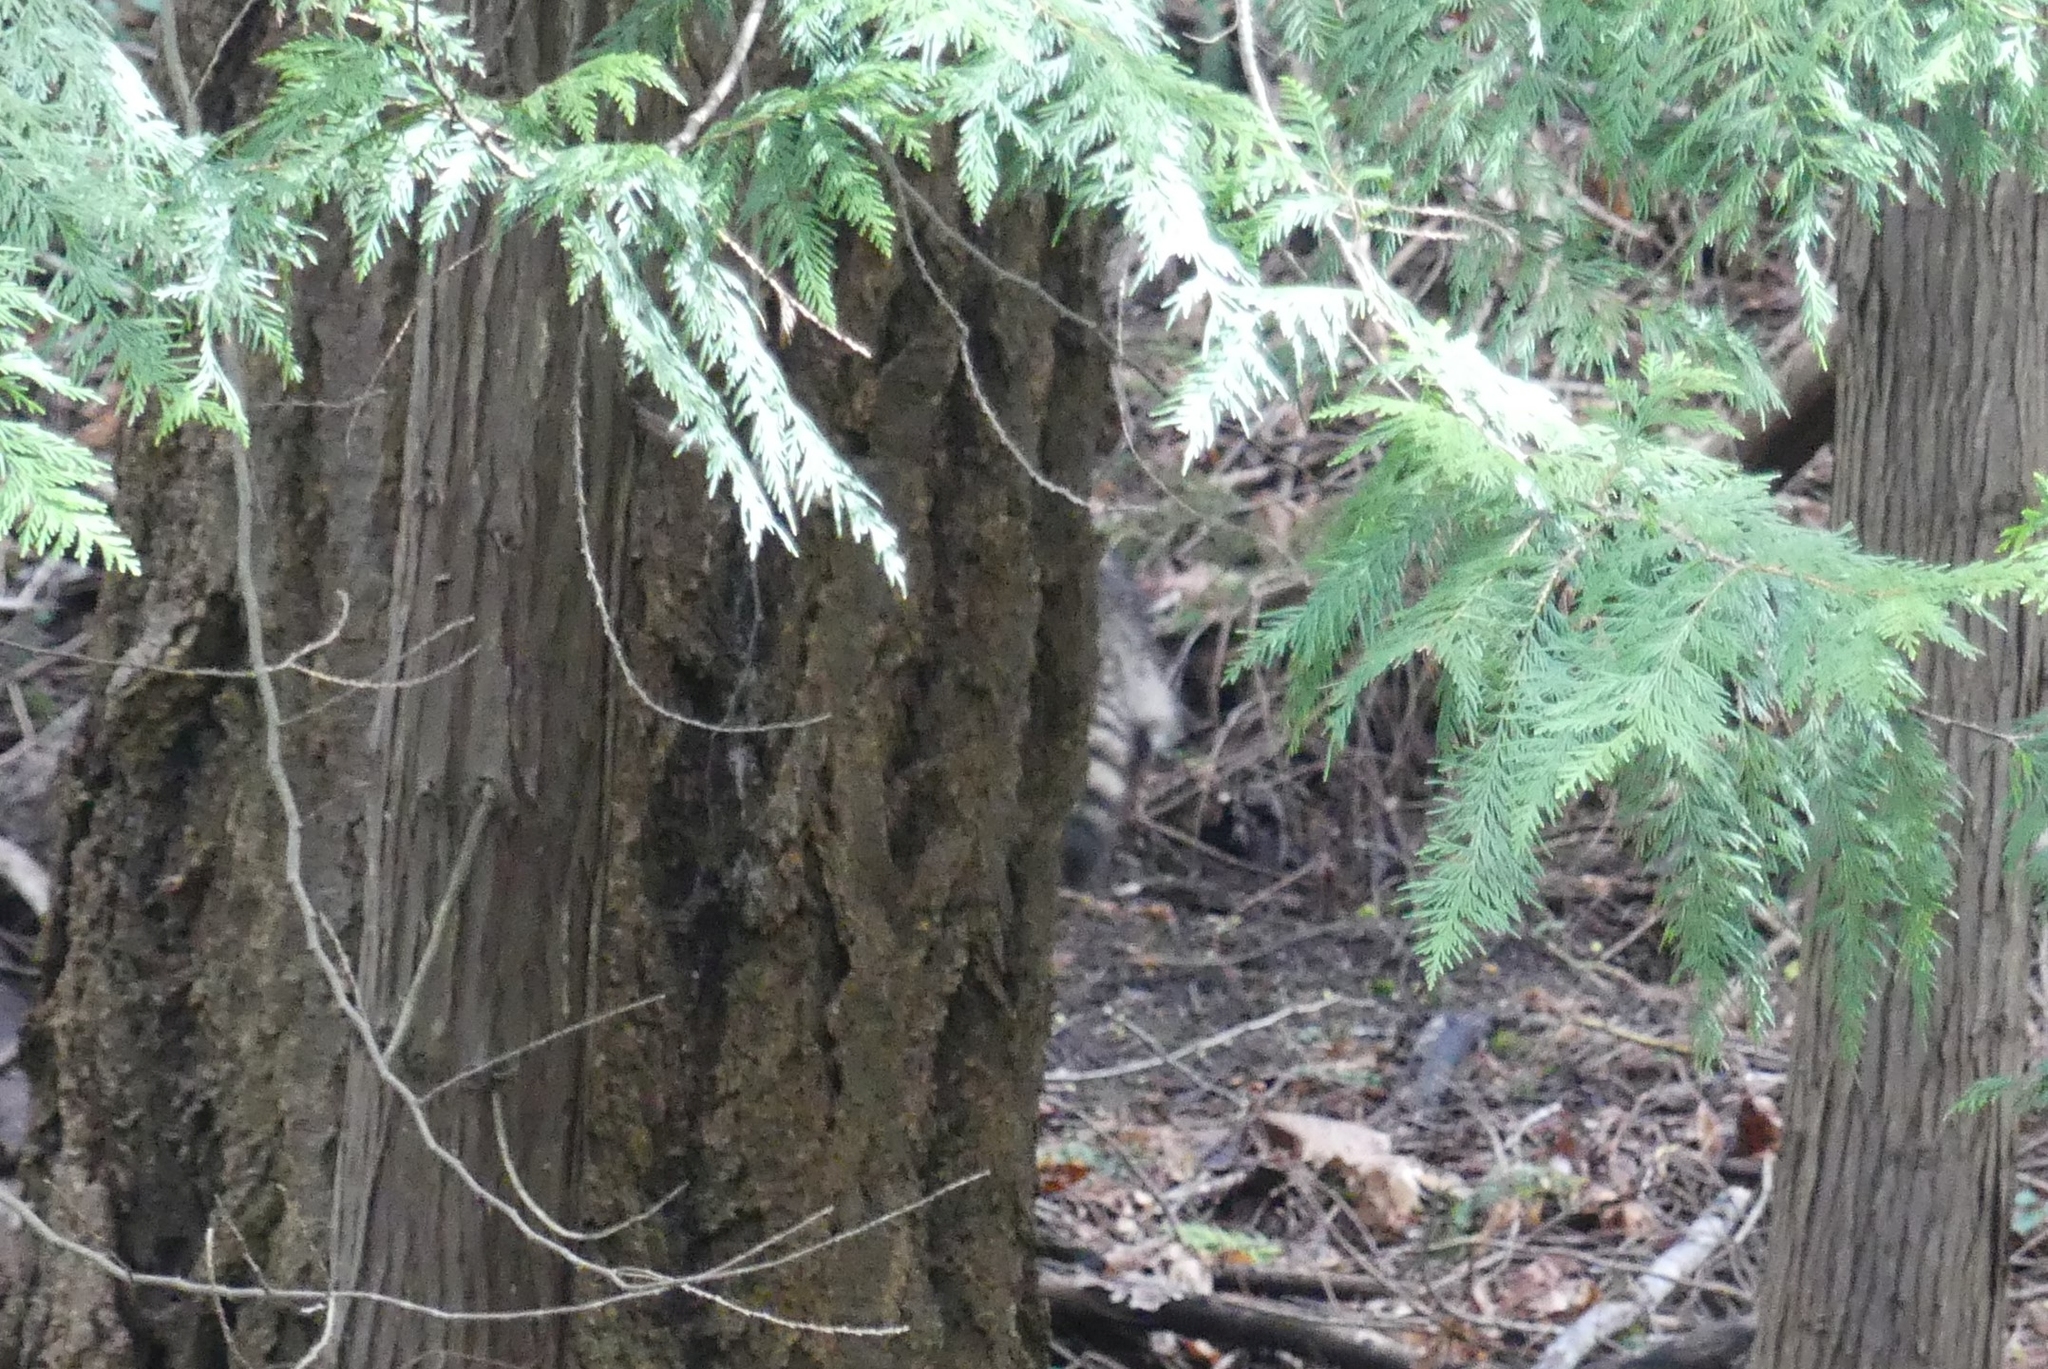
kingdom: Animalia
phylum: Chordata
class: Mammalia
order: Carnivora
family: Procyonidae
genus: Procyon
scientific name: Procyon lotor
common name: Raccoon
